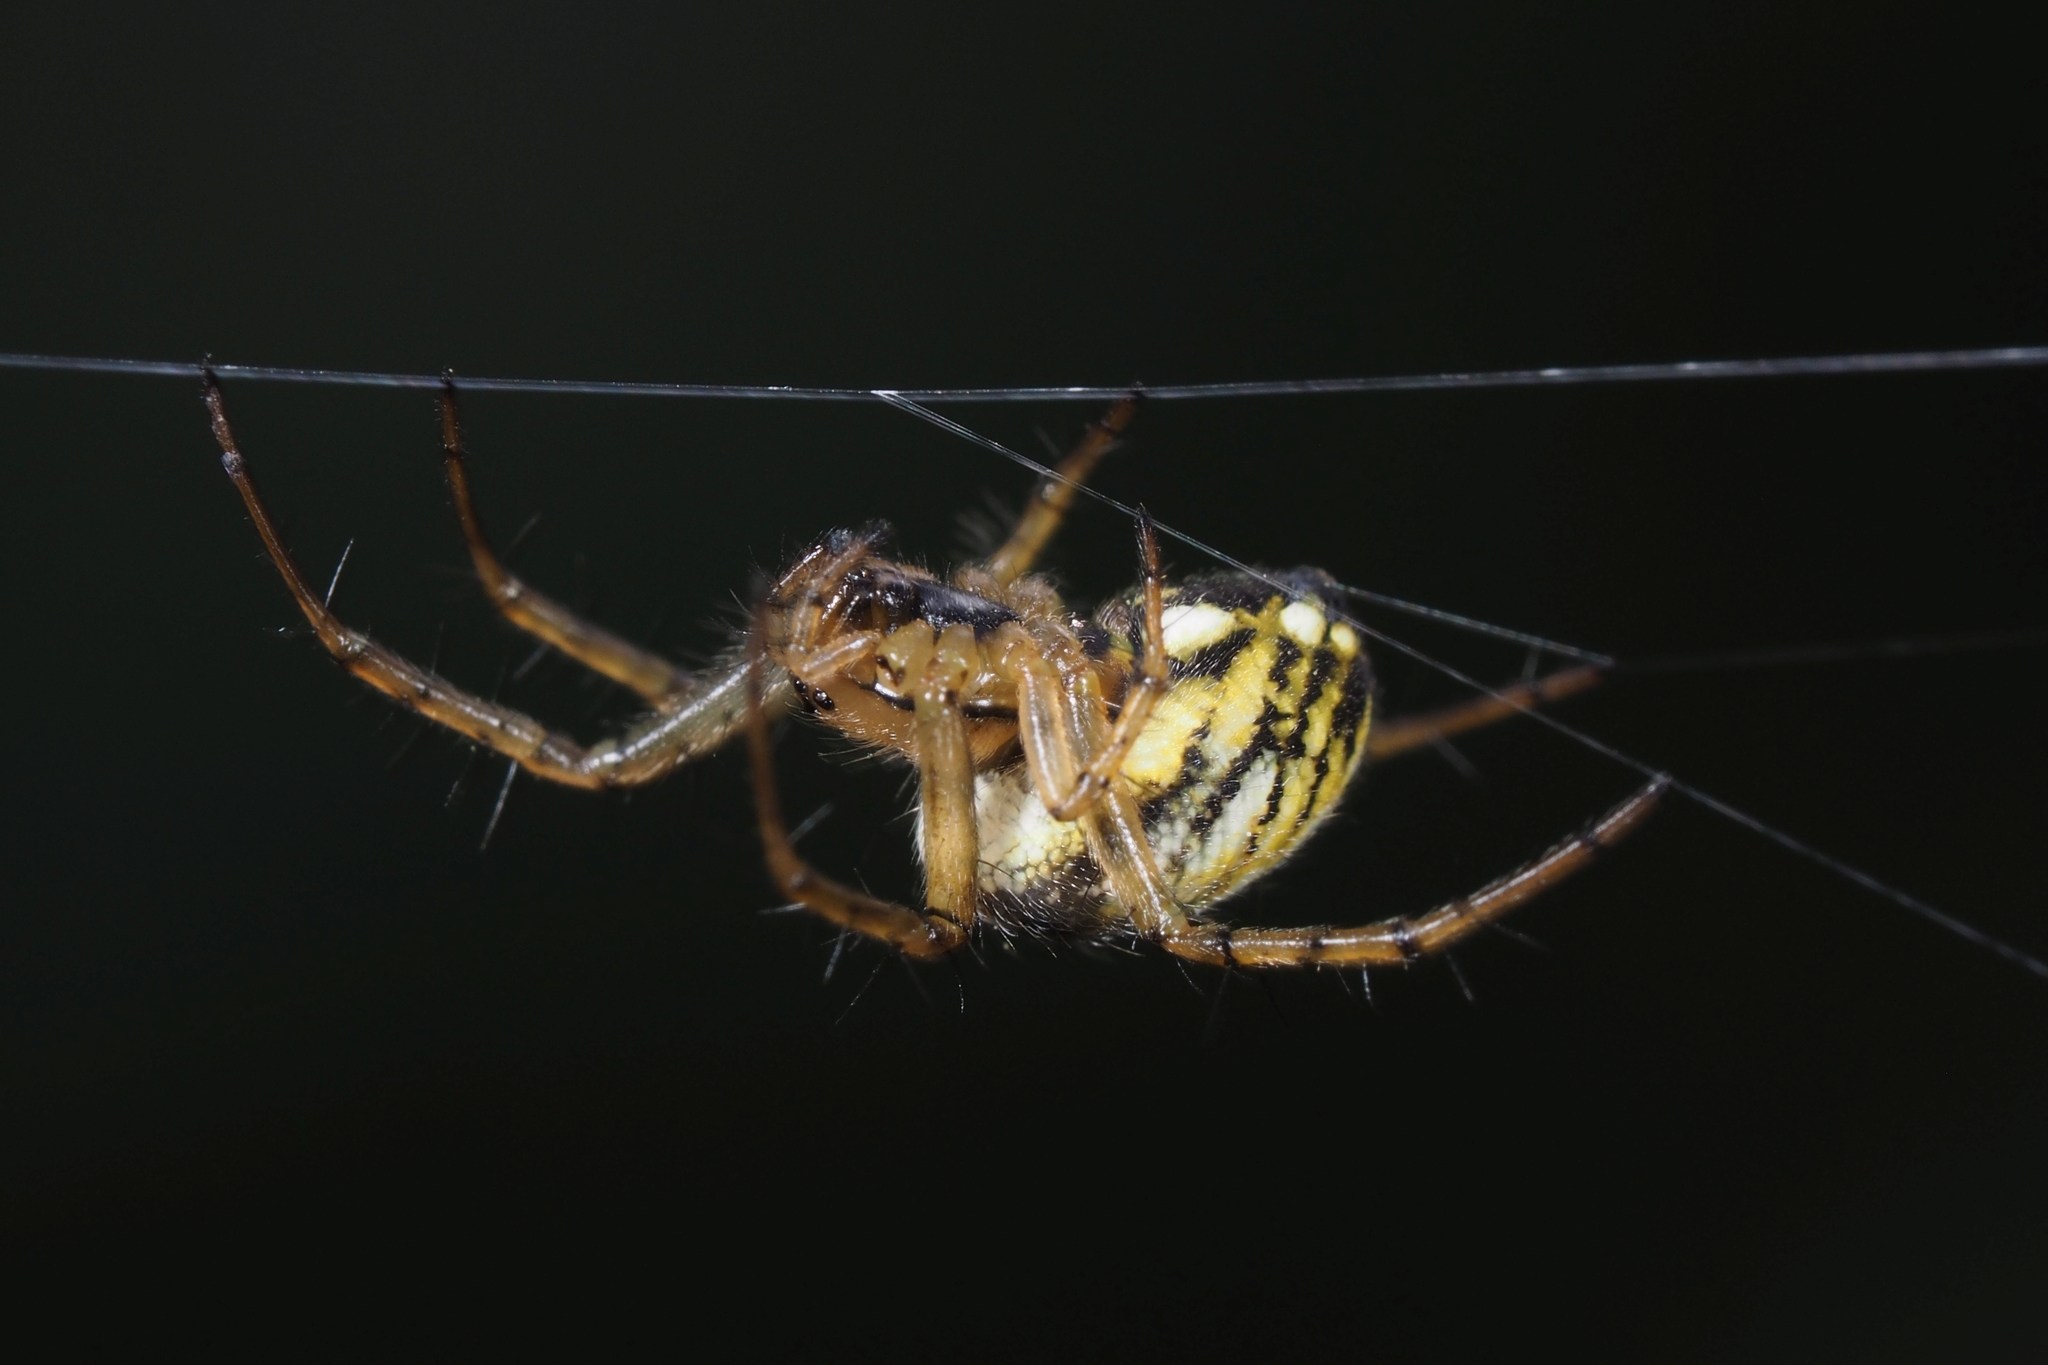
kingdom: Animalia
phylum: Arthropoda
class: Arachnida
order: Araneae
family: Araneidae
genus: Mangora
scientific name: Mangora acalypha
